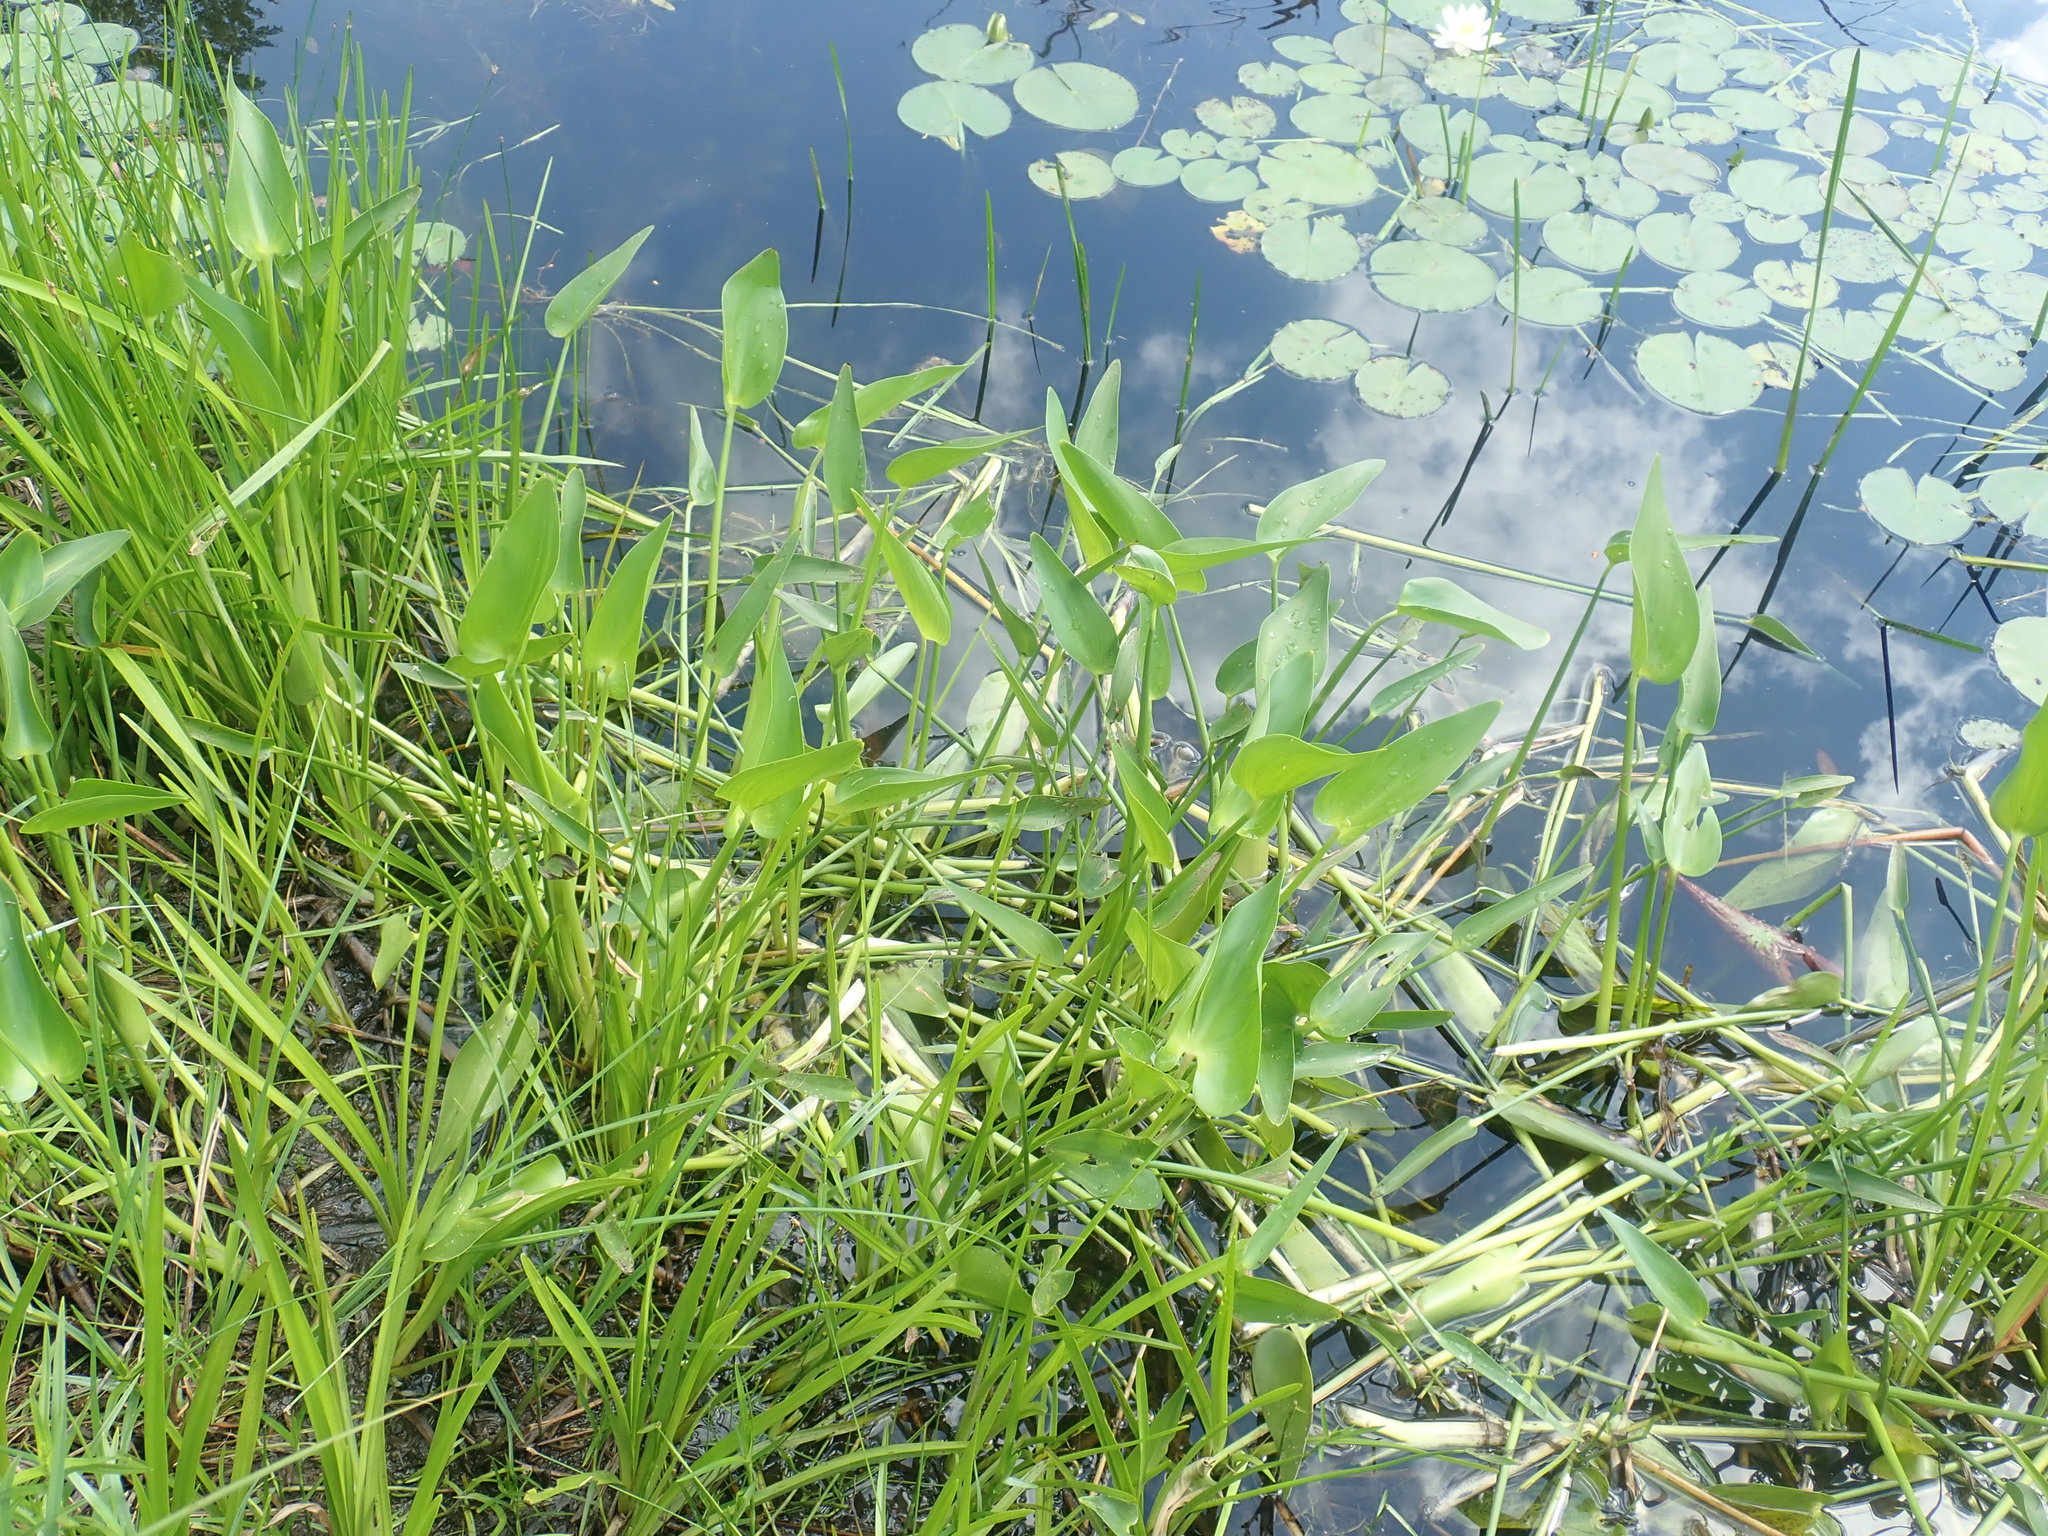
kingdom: Plantae
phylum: Tracheophyta
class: Liliopsida
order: Commelinales
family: Pontederiaceae
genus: Pontederia
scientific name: Pontederia cordata
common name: Pickerelweed
